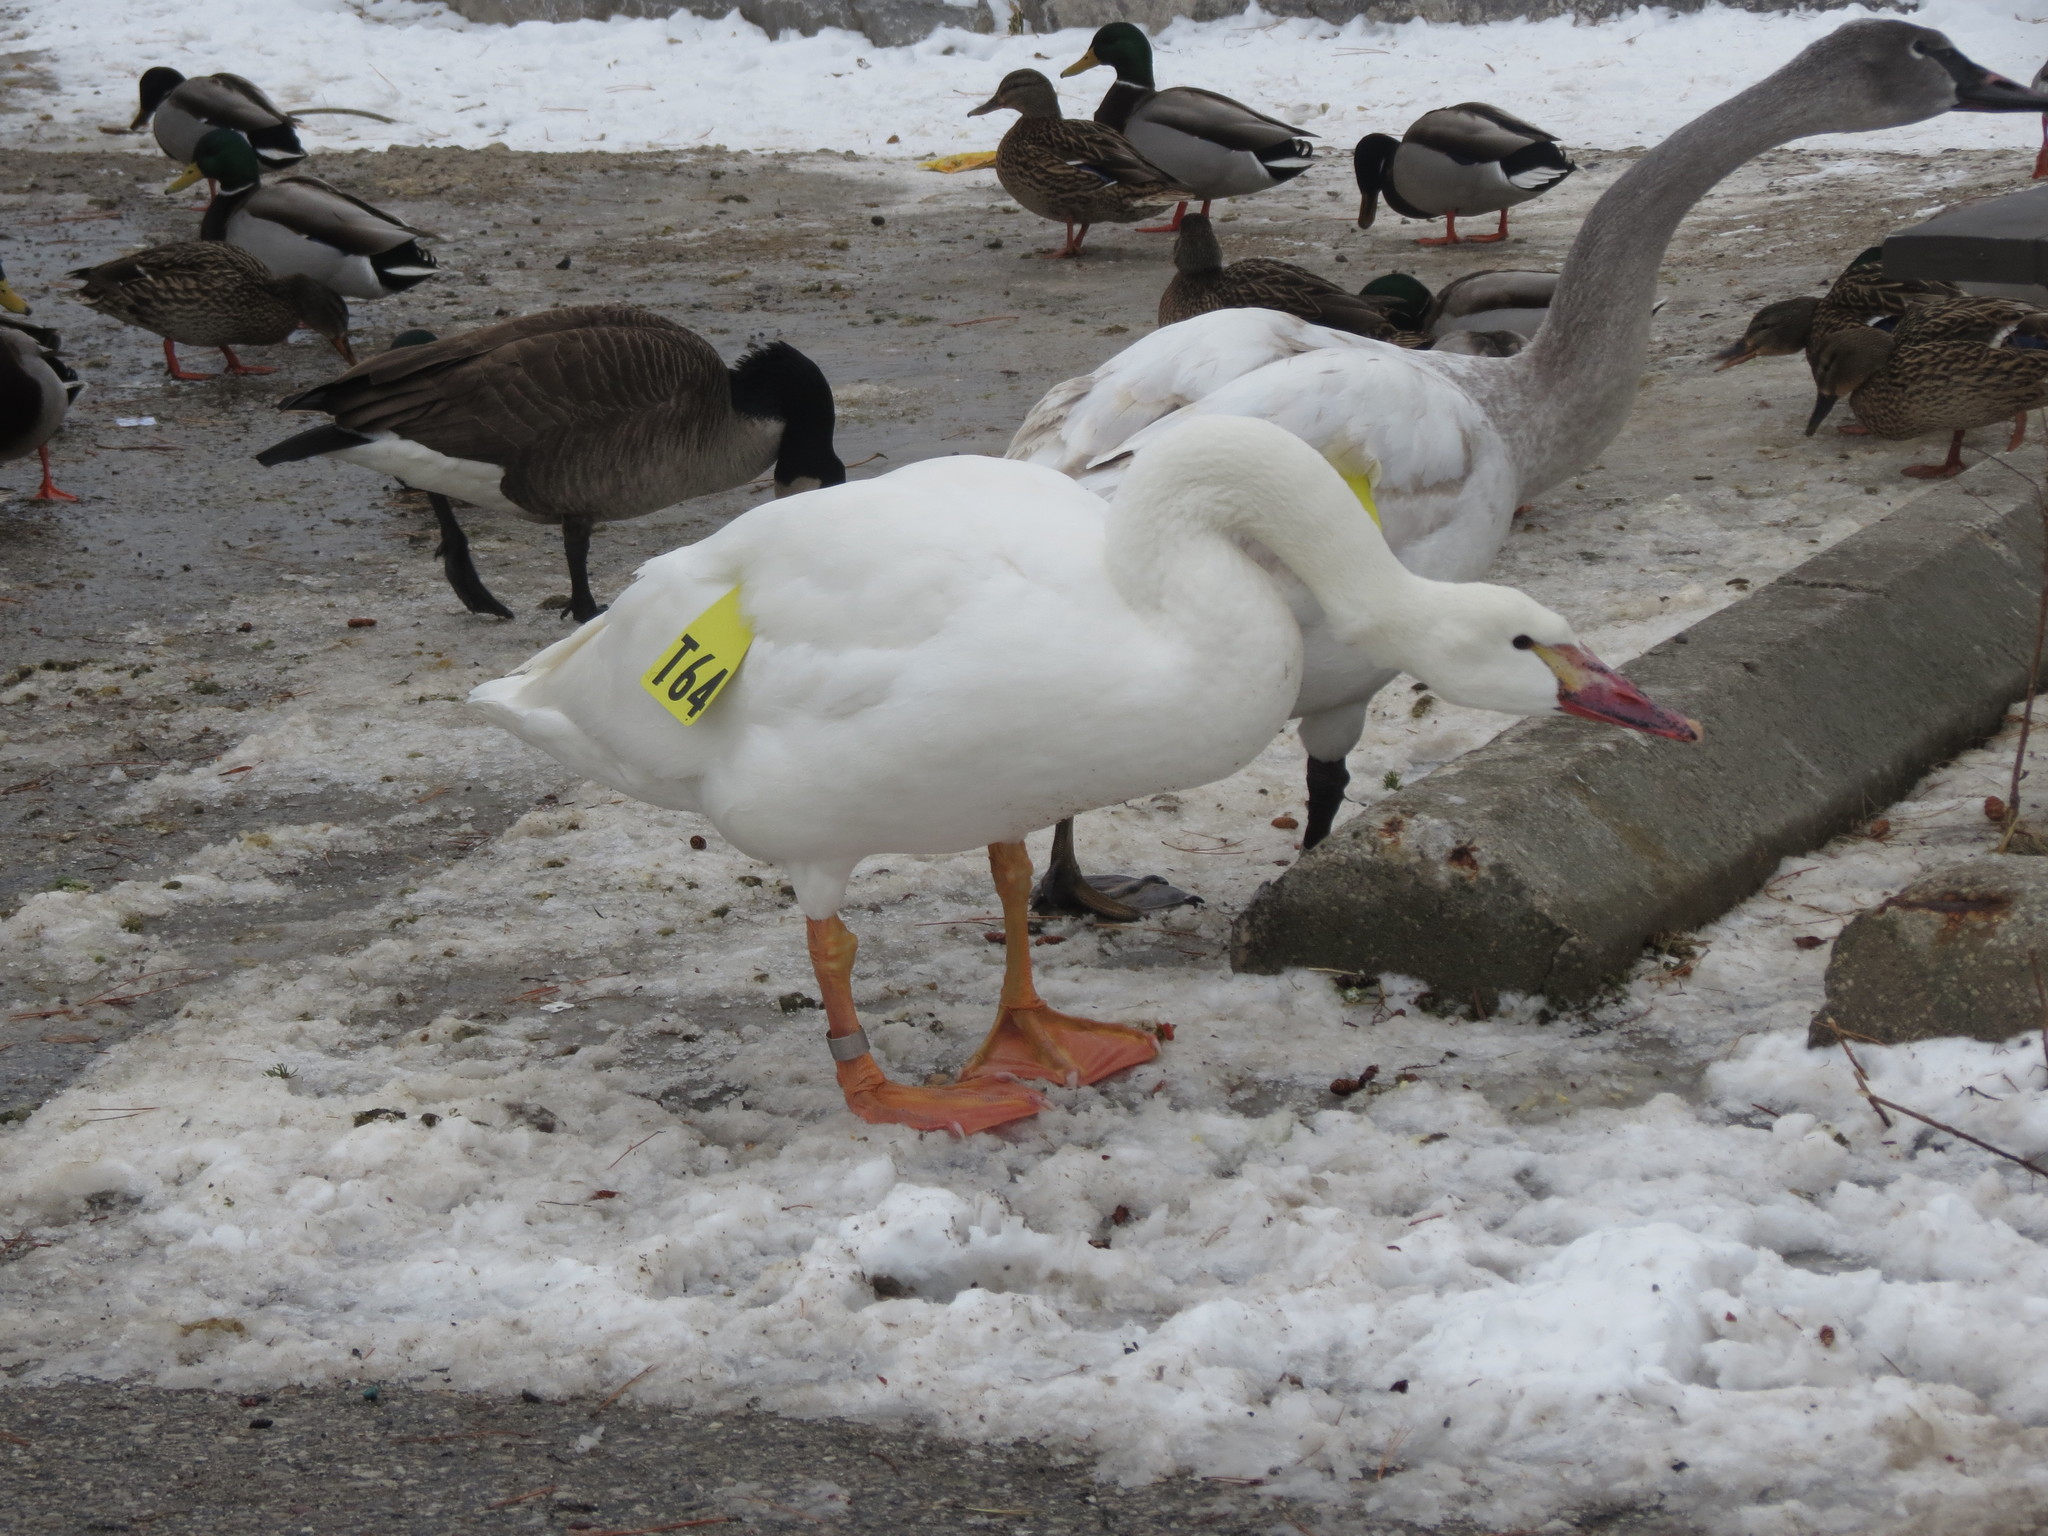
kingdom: Animalia
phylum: Chordata
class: Aves
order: Anseriformes
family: Anatidae
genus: Cygnus
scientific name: Cygnus buccinator
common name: Trumpeter swan
